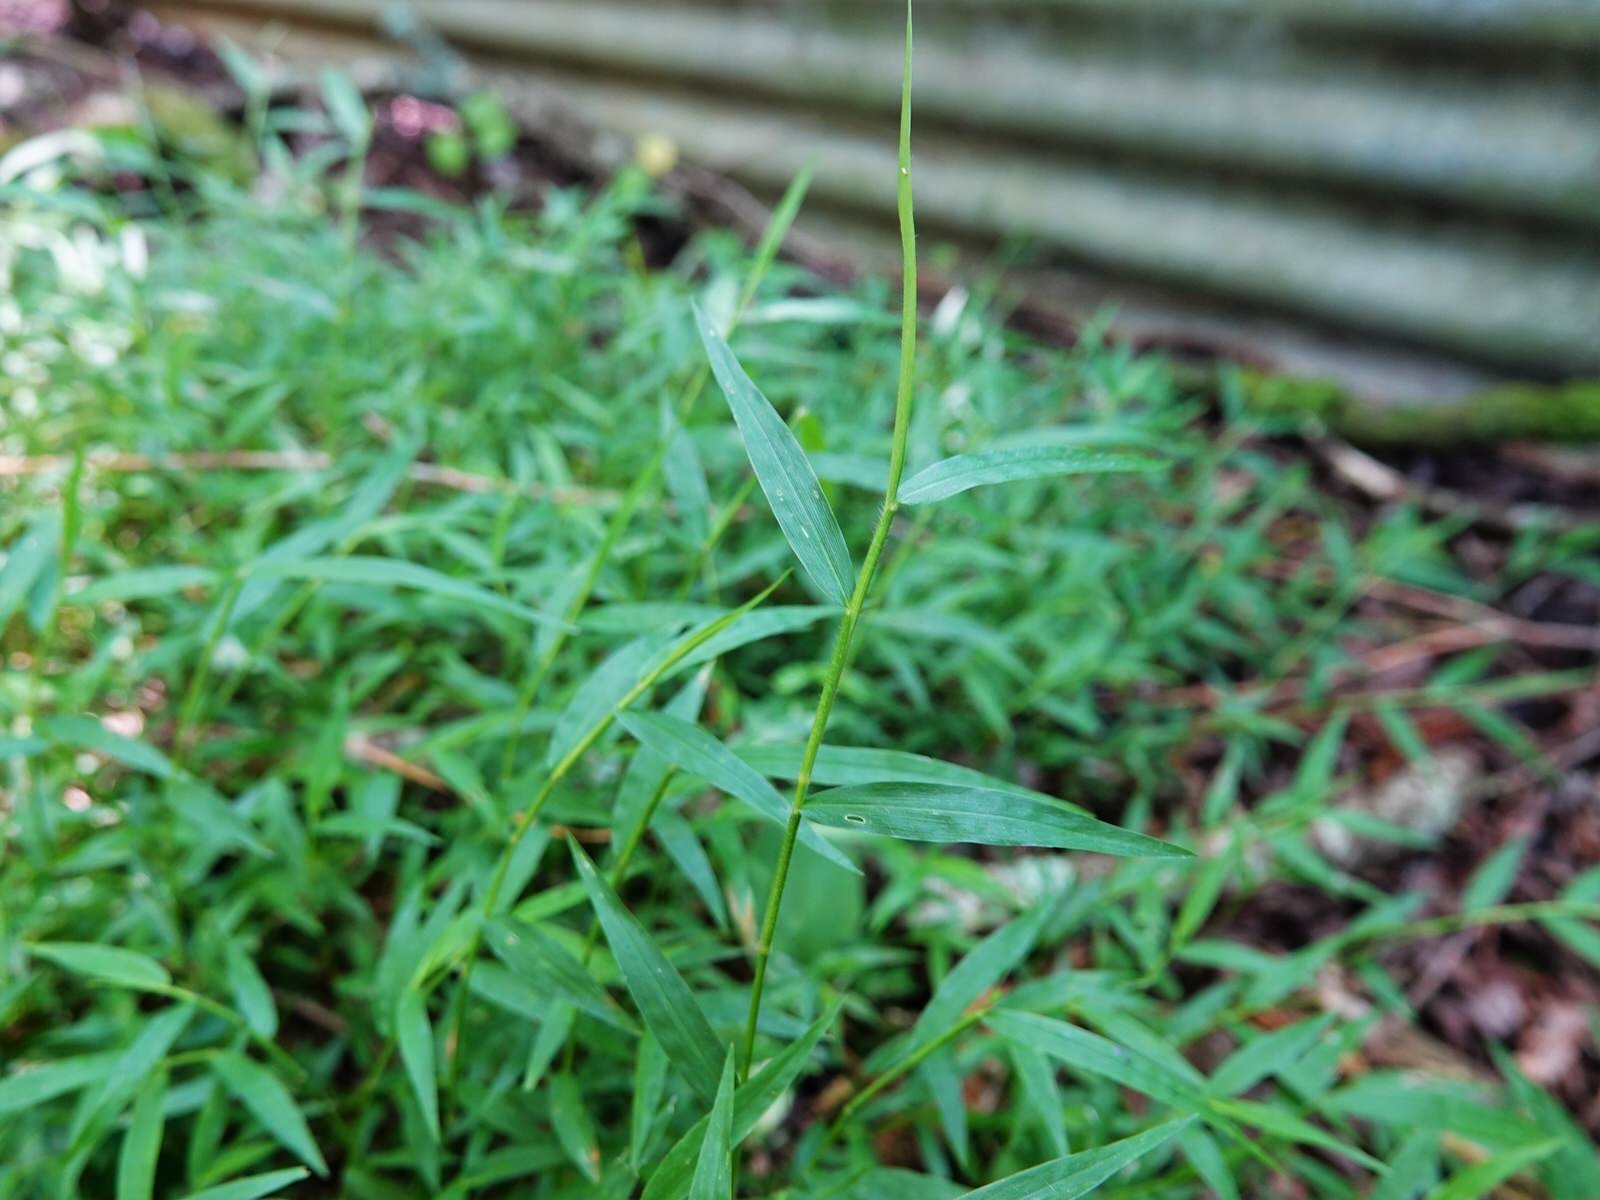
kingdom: Plantae
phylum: Tracheophyta
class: Liliopsida
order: Poales
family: Poaceae
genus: Oplismenus
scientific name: Oplismenus hirtellus
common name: Basketgrass
